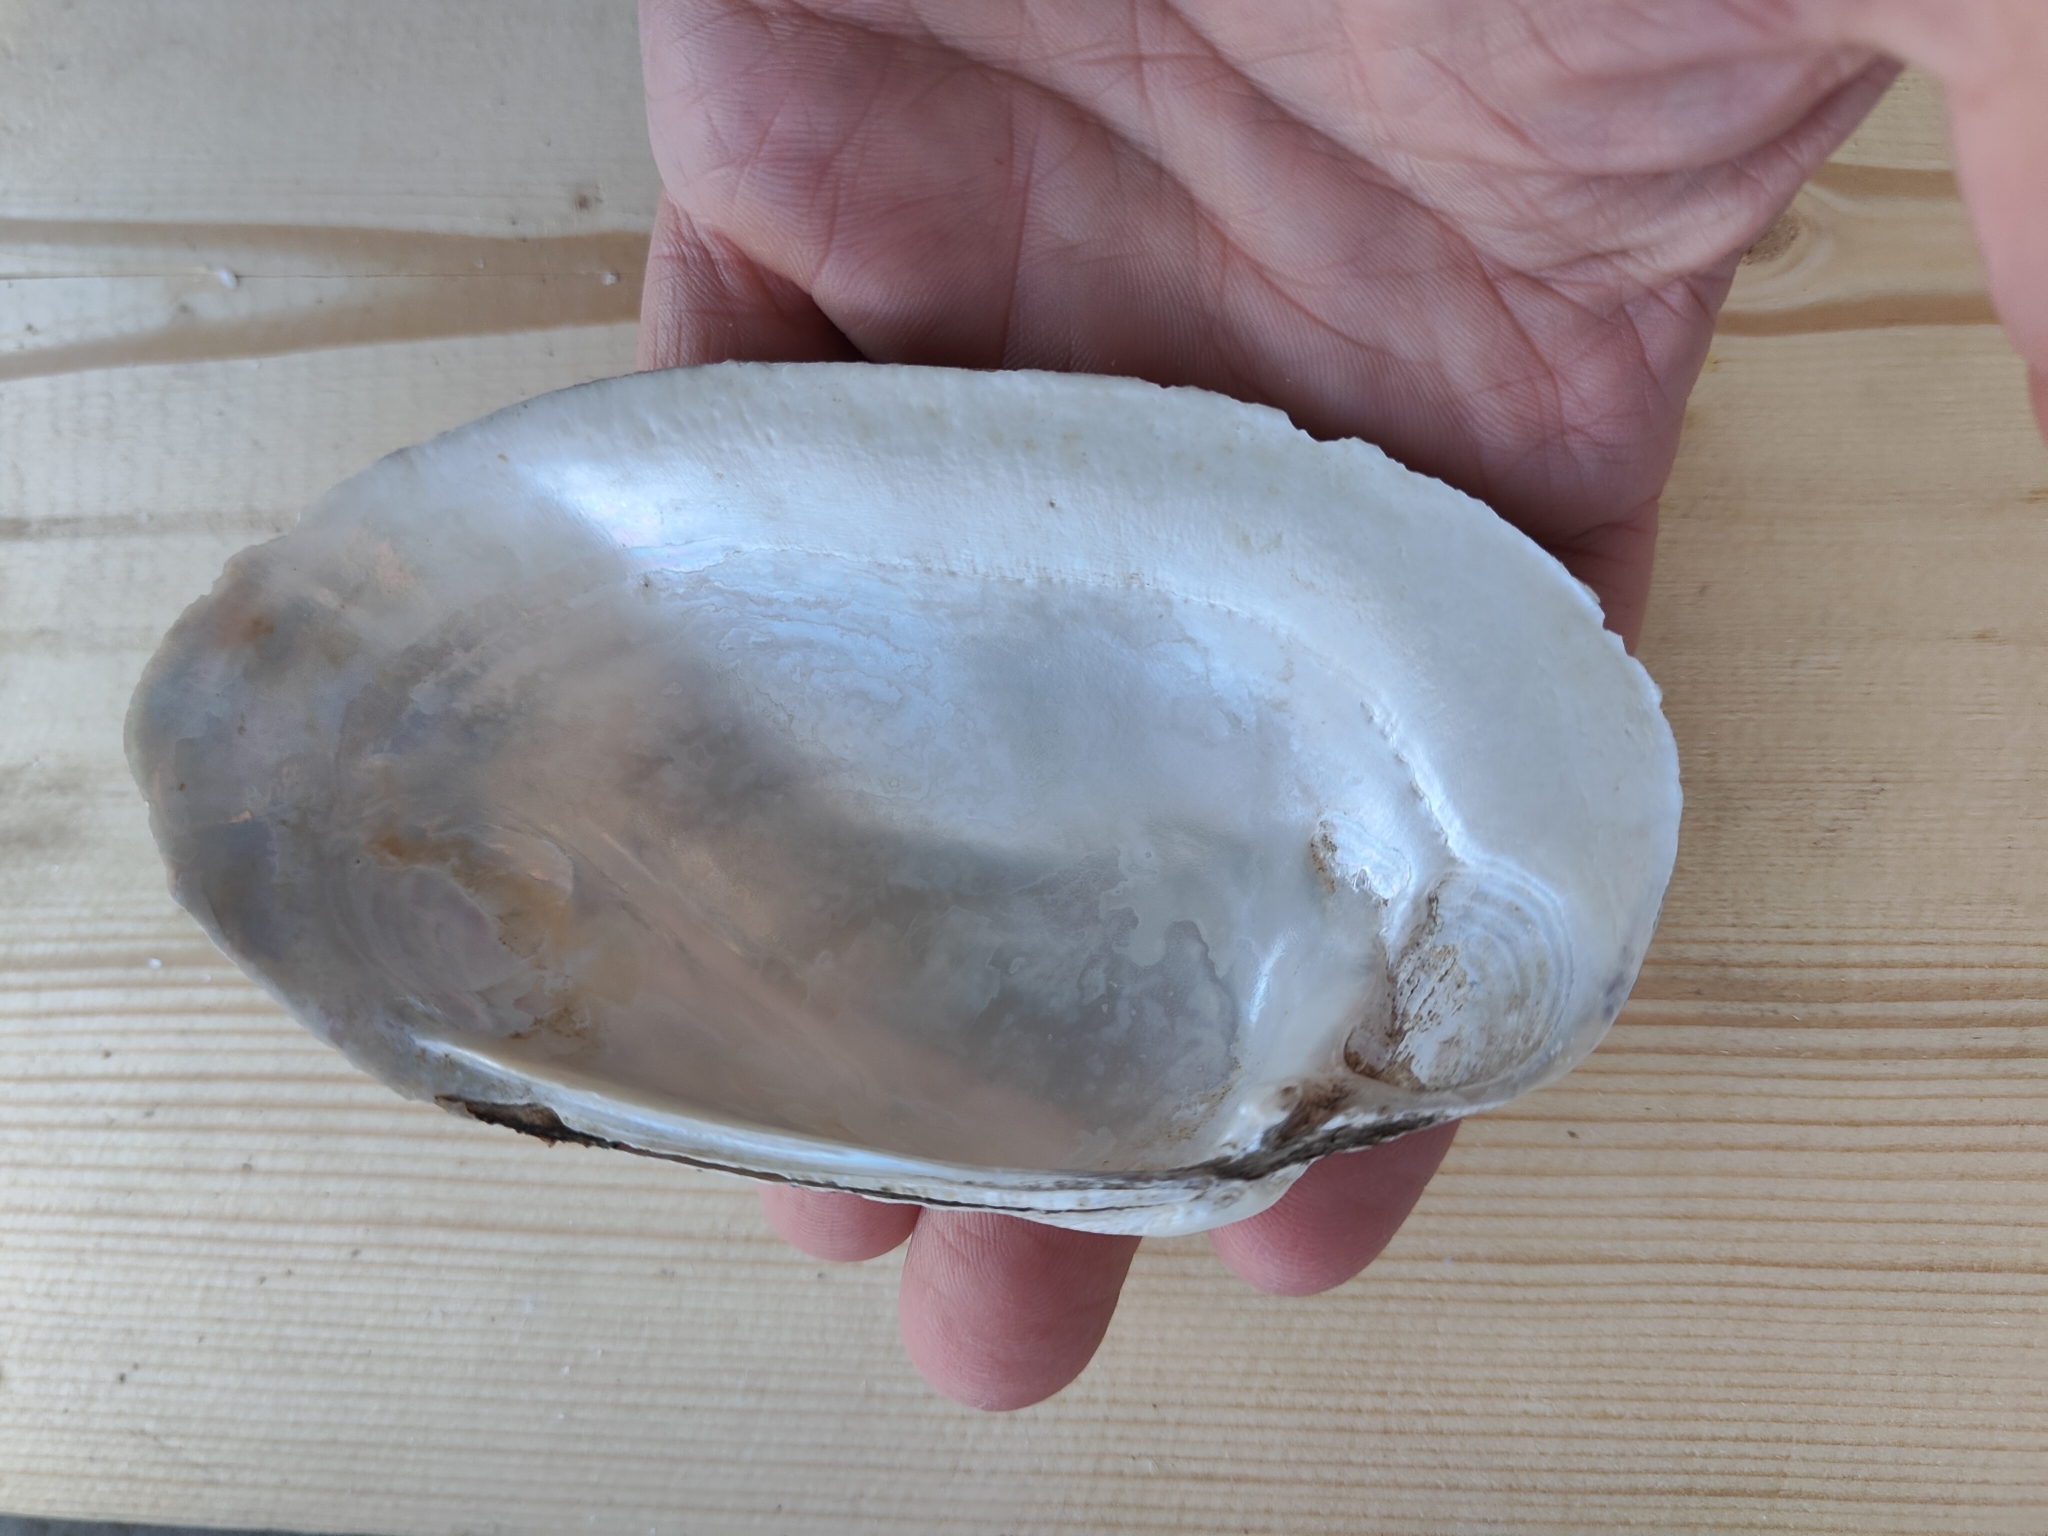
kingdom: Animalia
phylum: Mollusca
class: Bivalvia
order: Unionida
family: Unionidae
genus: Lampsilis
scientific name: Lampsilis siliquoidea
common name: Fatmucket
